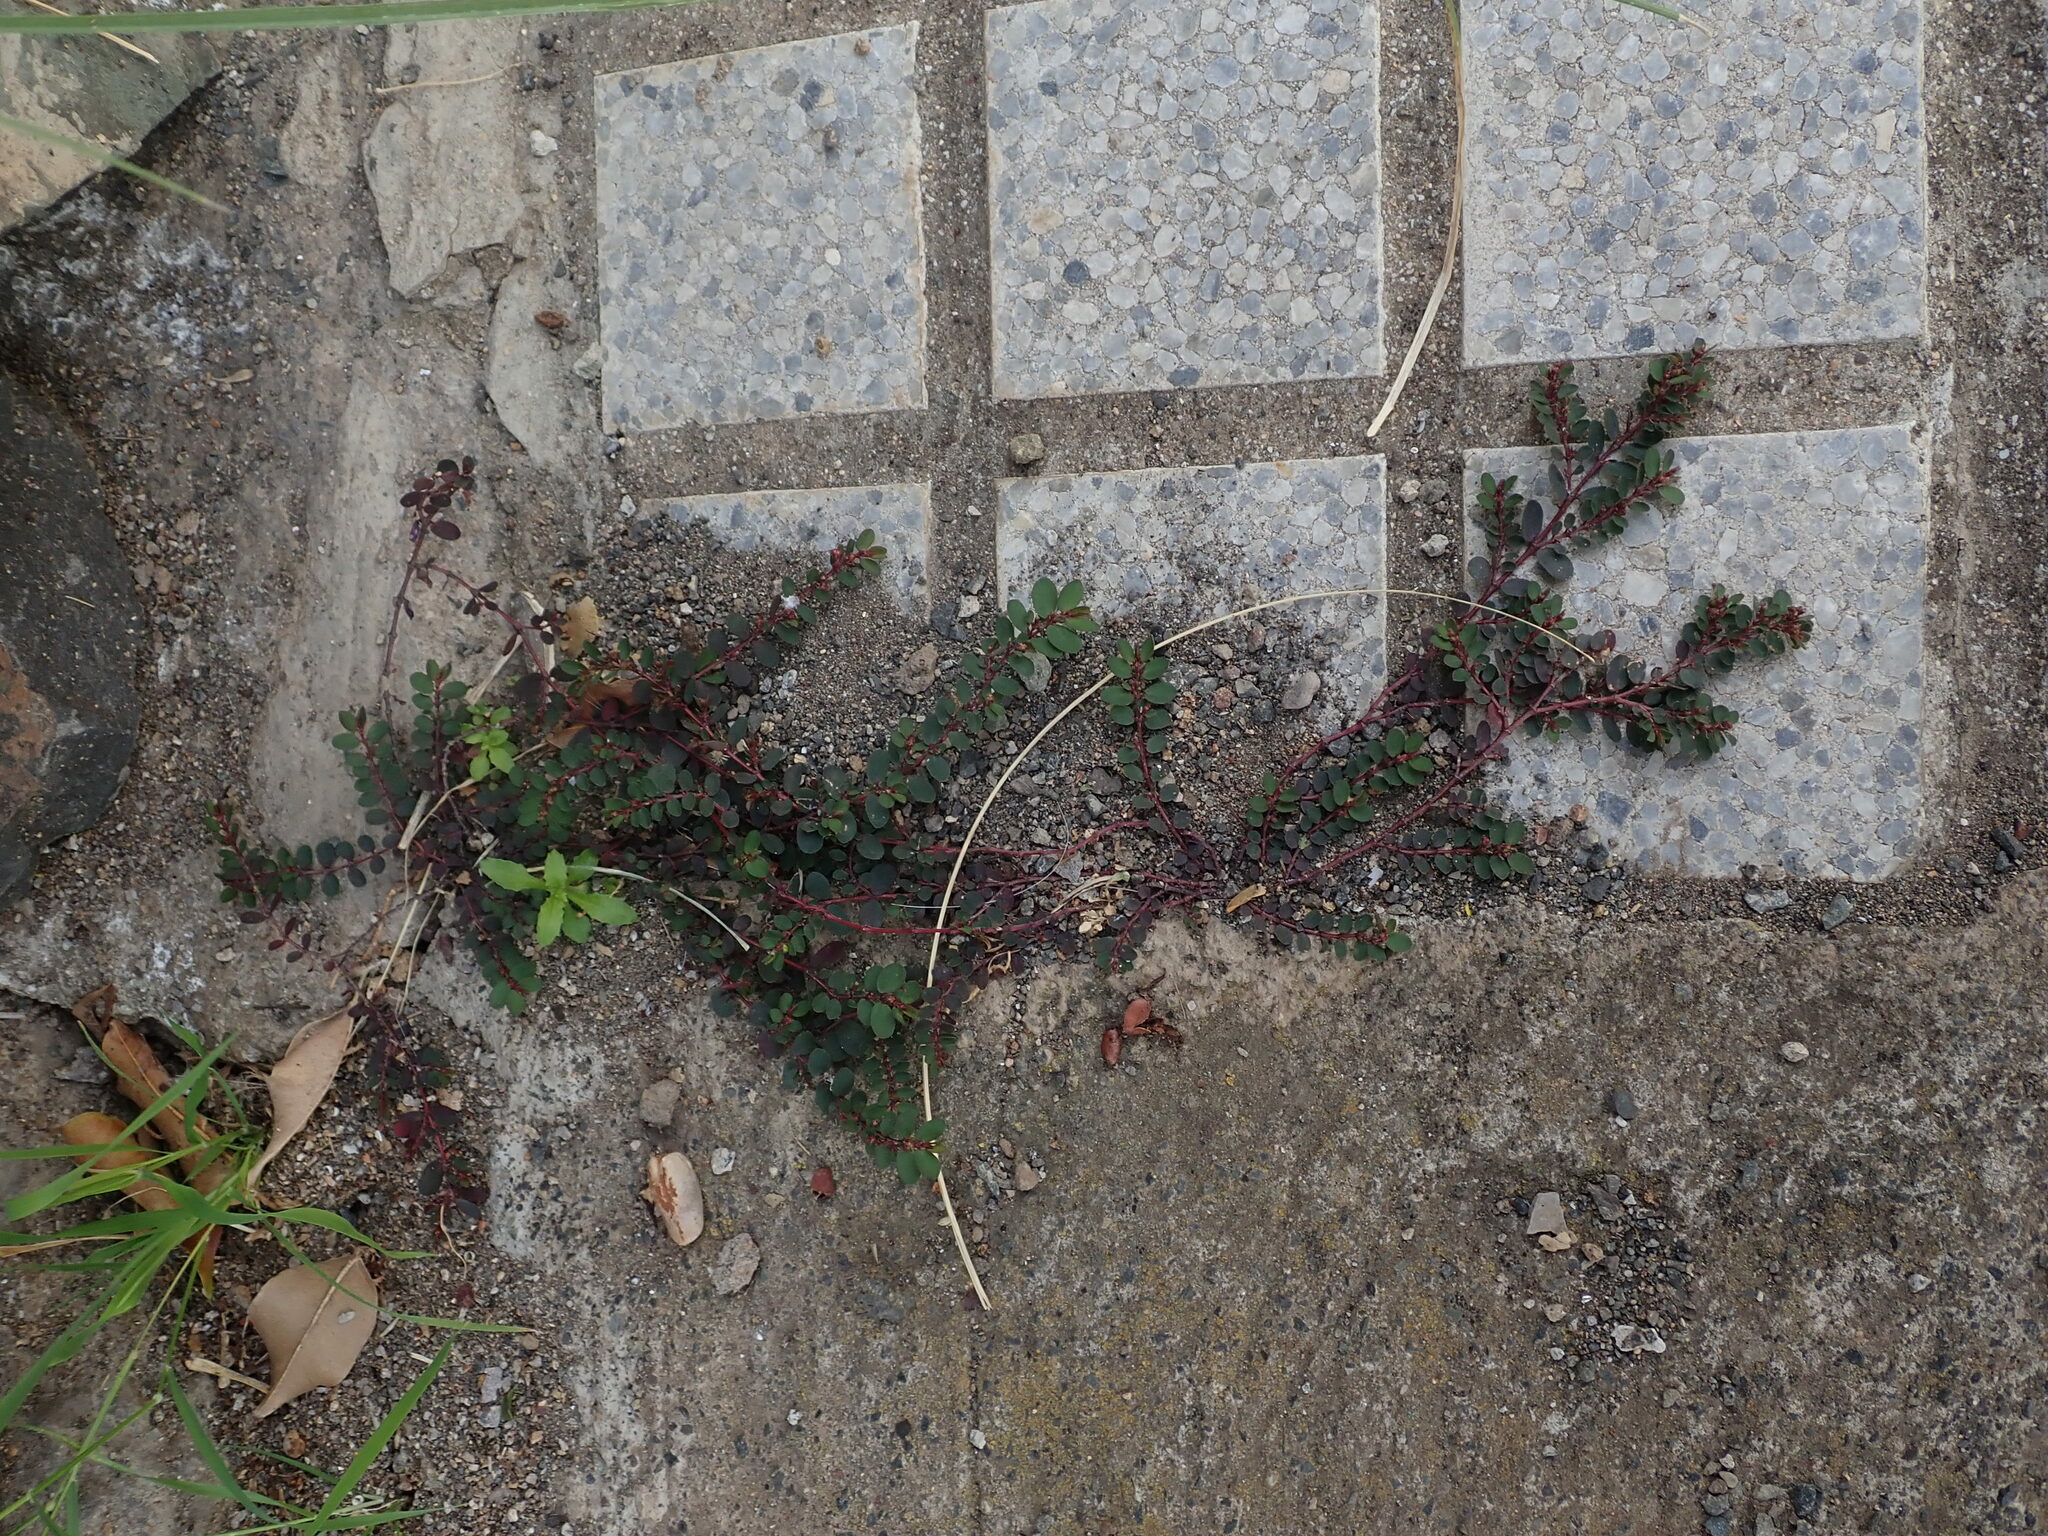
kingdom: Plantae
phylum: Tracheophyta
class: Magnoliopsida
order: Malpighiales
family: Euphorbiaceae
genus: Euphorbia
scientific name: Euphorbia prostrata
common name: Prostrate sandmat
